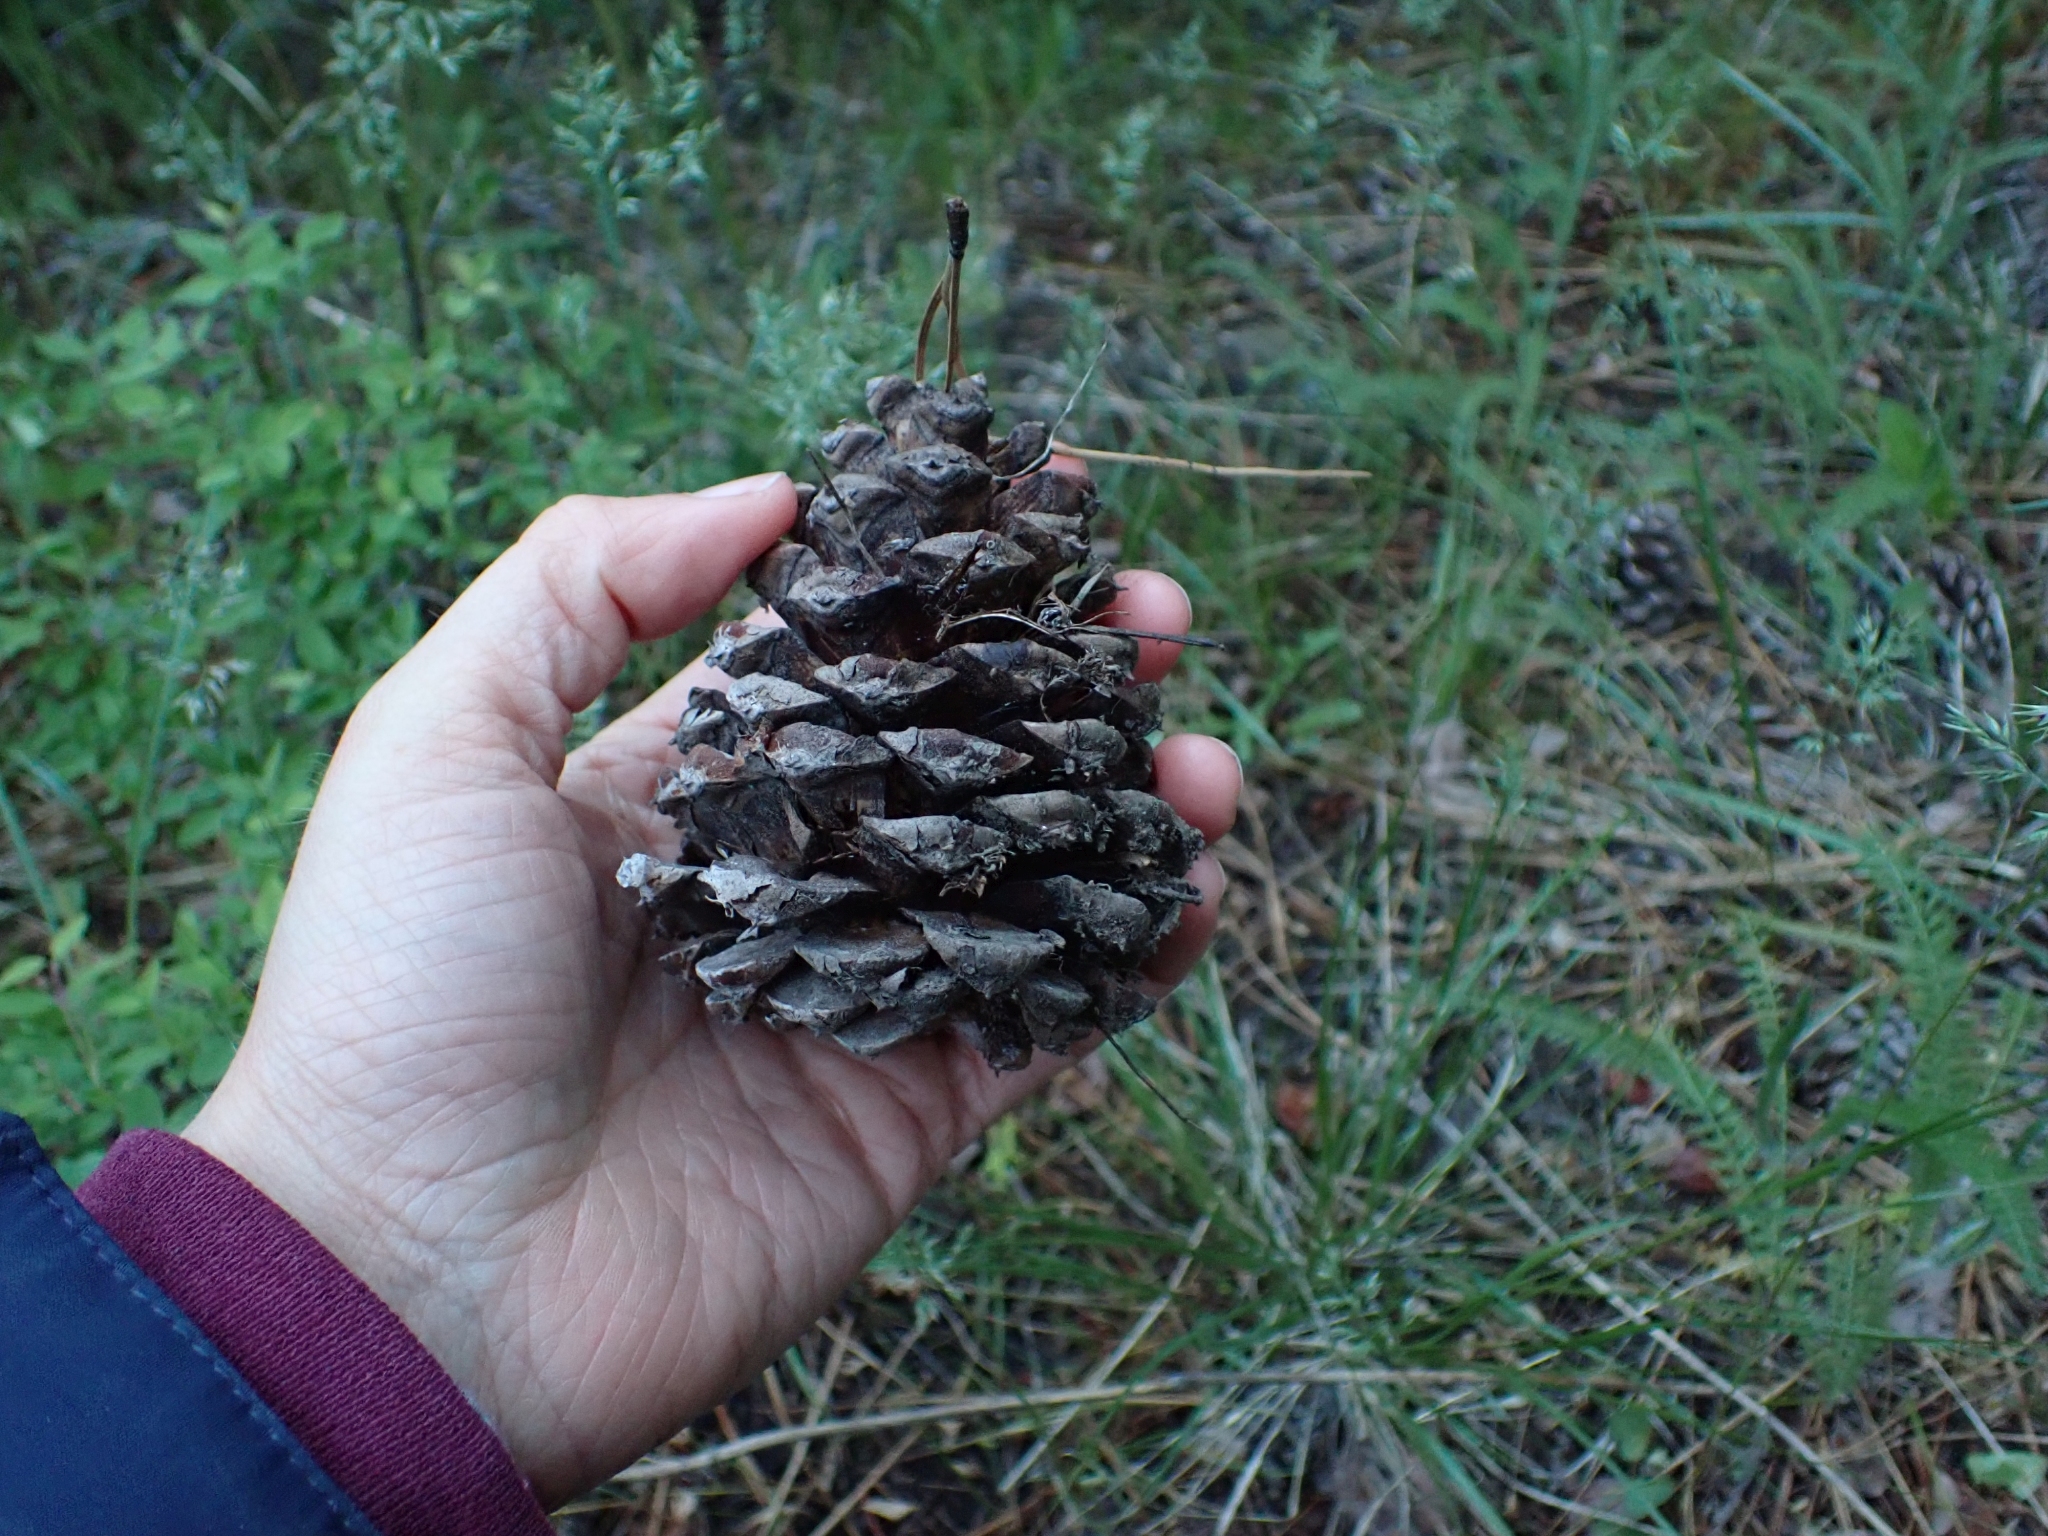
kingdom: Plantae
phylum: Tracheophyta
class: Pinopsida
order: Pinales
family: Pinaceae
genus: Pinus
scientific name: Pinus ponderosa
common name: Western yellow-pine
